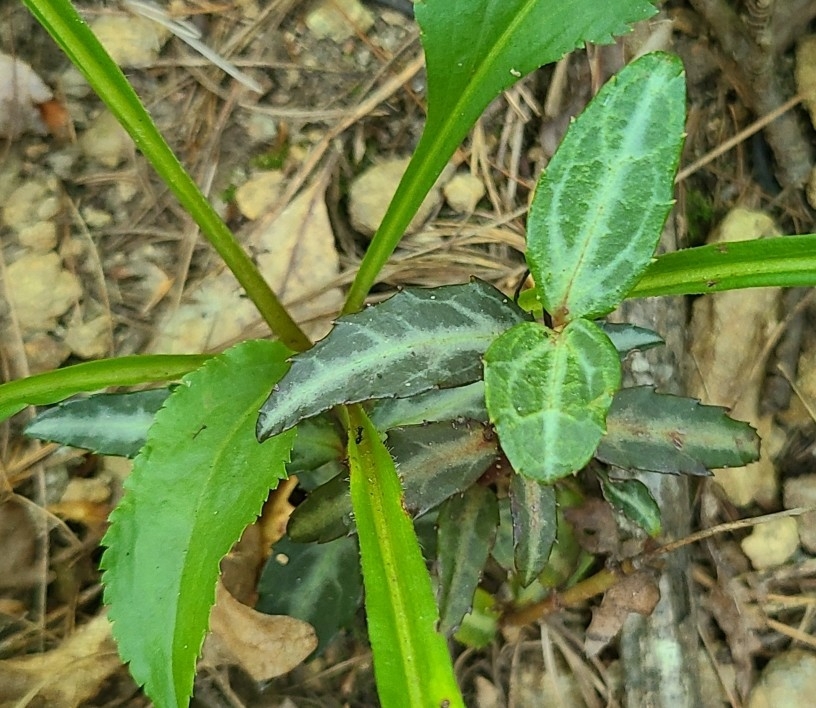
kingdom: Plantae
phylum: Tracheophyta
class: Magnoliopsida
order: Ericales
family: Ericaceae
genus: Chimaphila
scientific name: Chimaphila maculata
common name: Spotted pipsissewa
